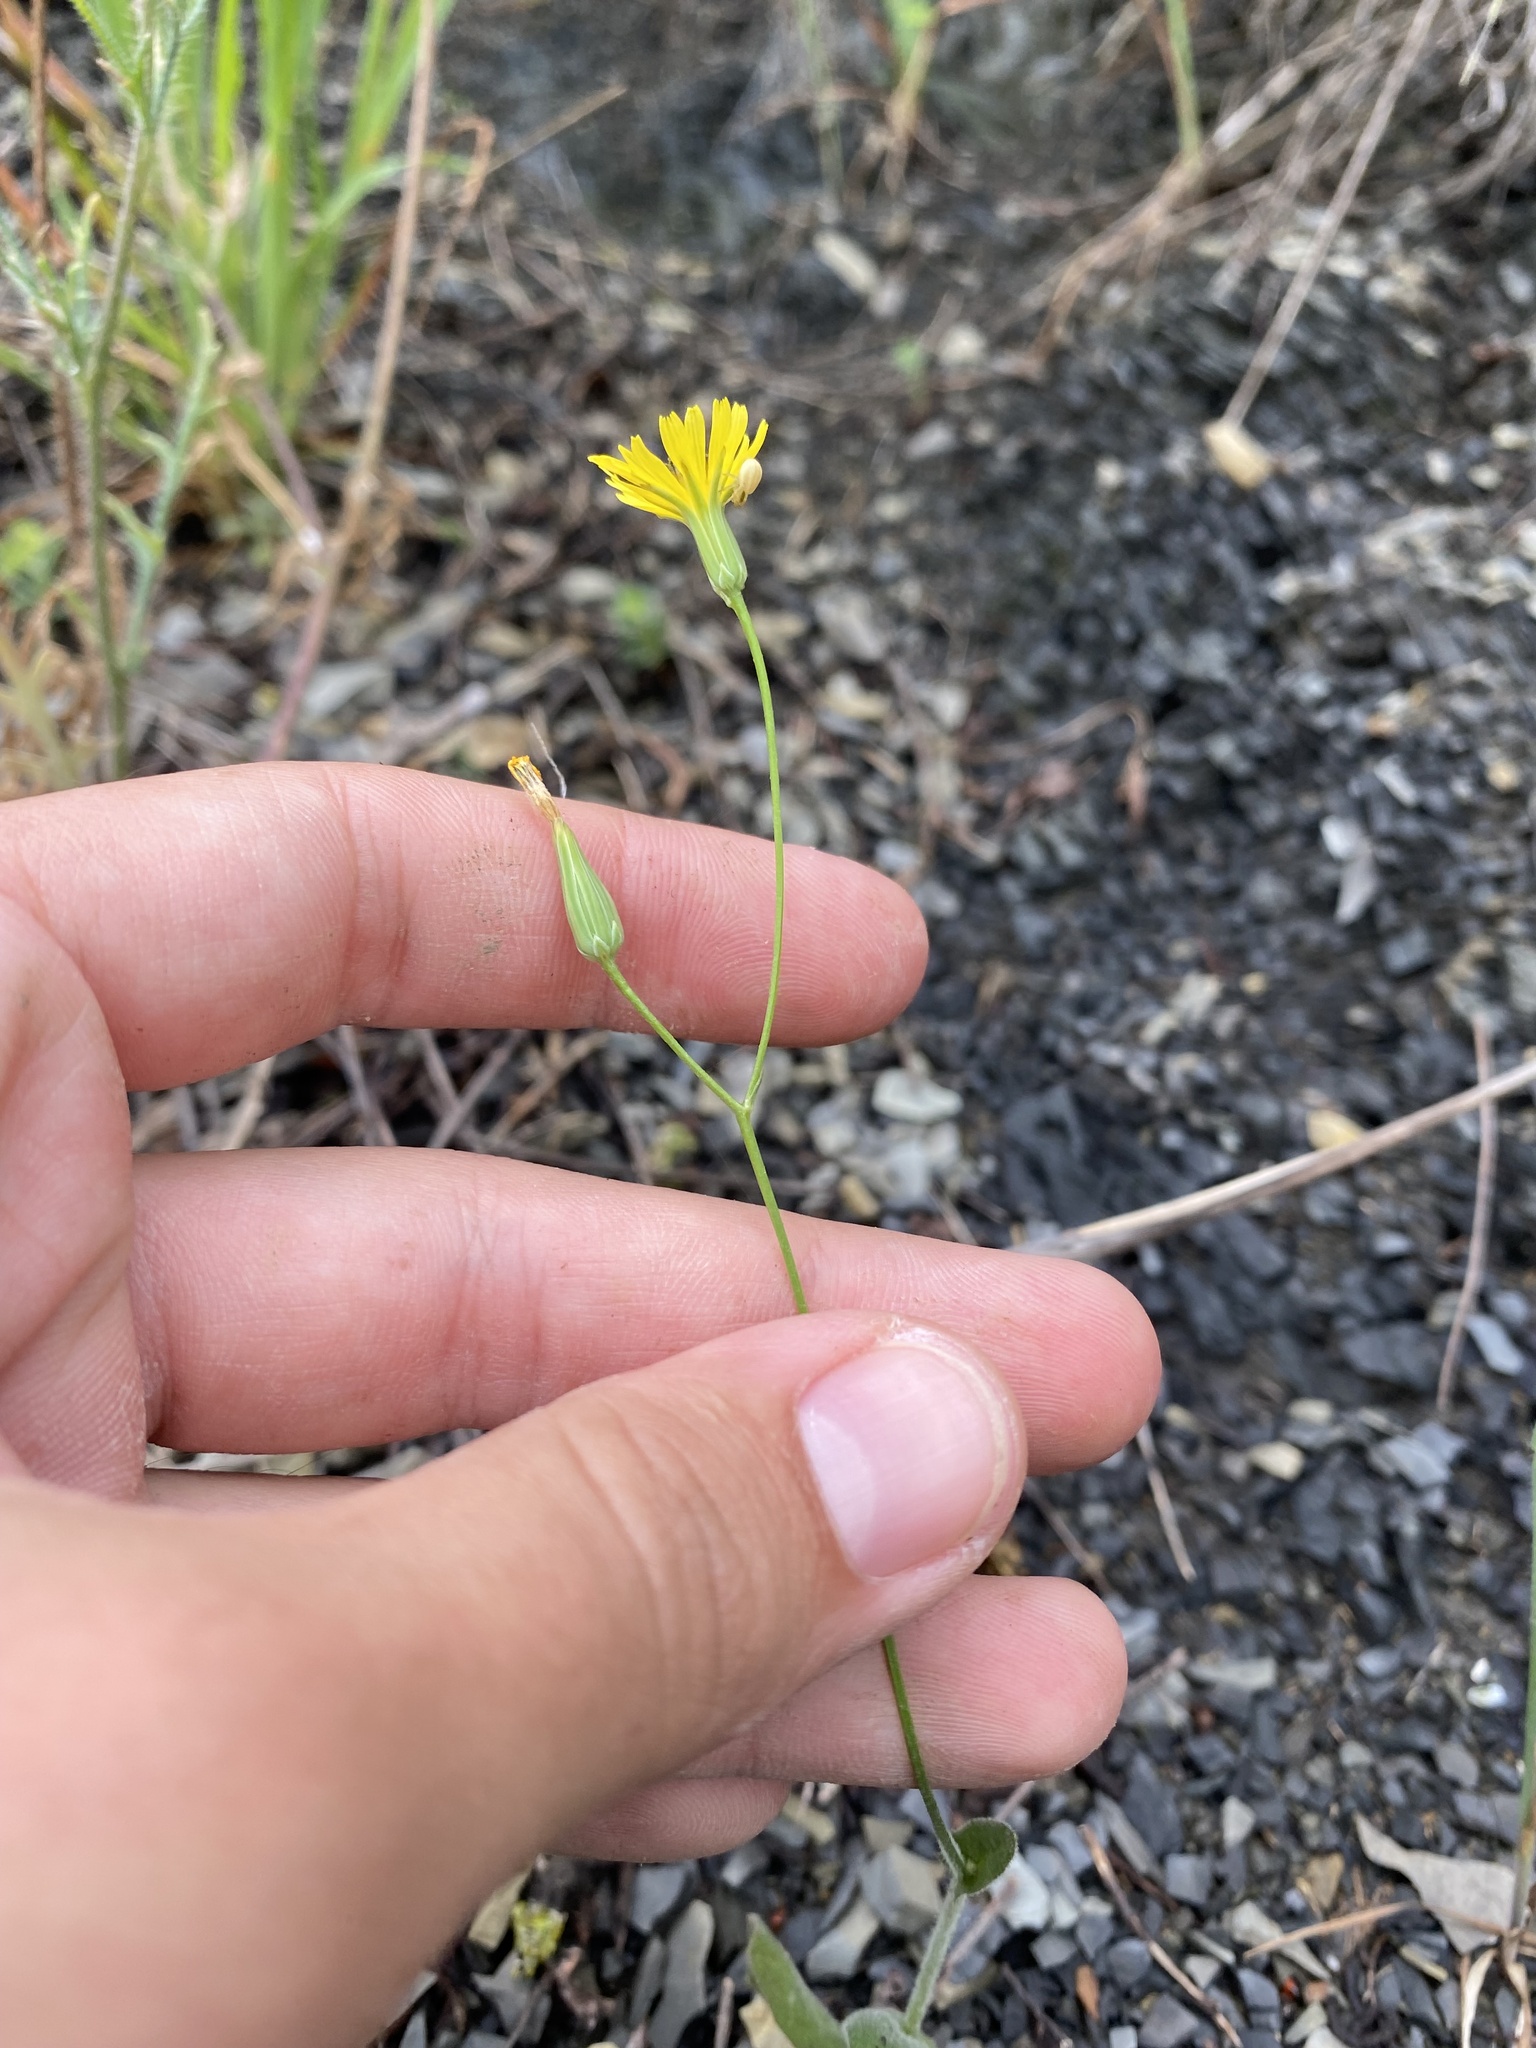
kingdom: Plantae
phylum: Tracheophyta
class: Magnoliopsida
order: Asterales
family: Asteraceae
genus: Crepis
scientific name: Crepis sancta
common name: Hawk's-beard
